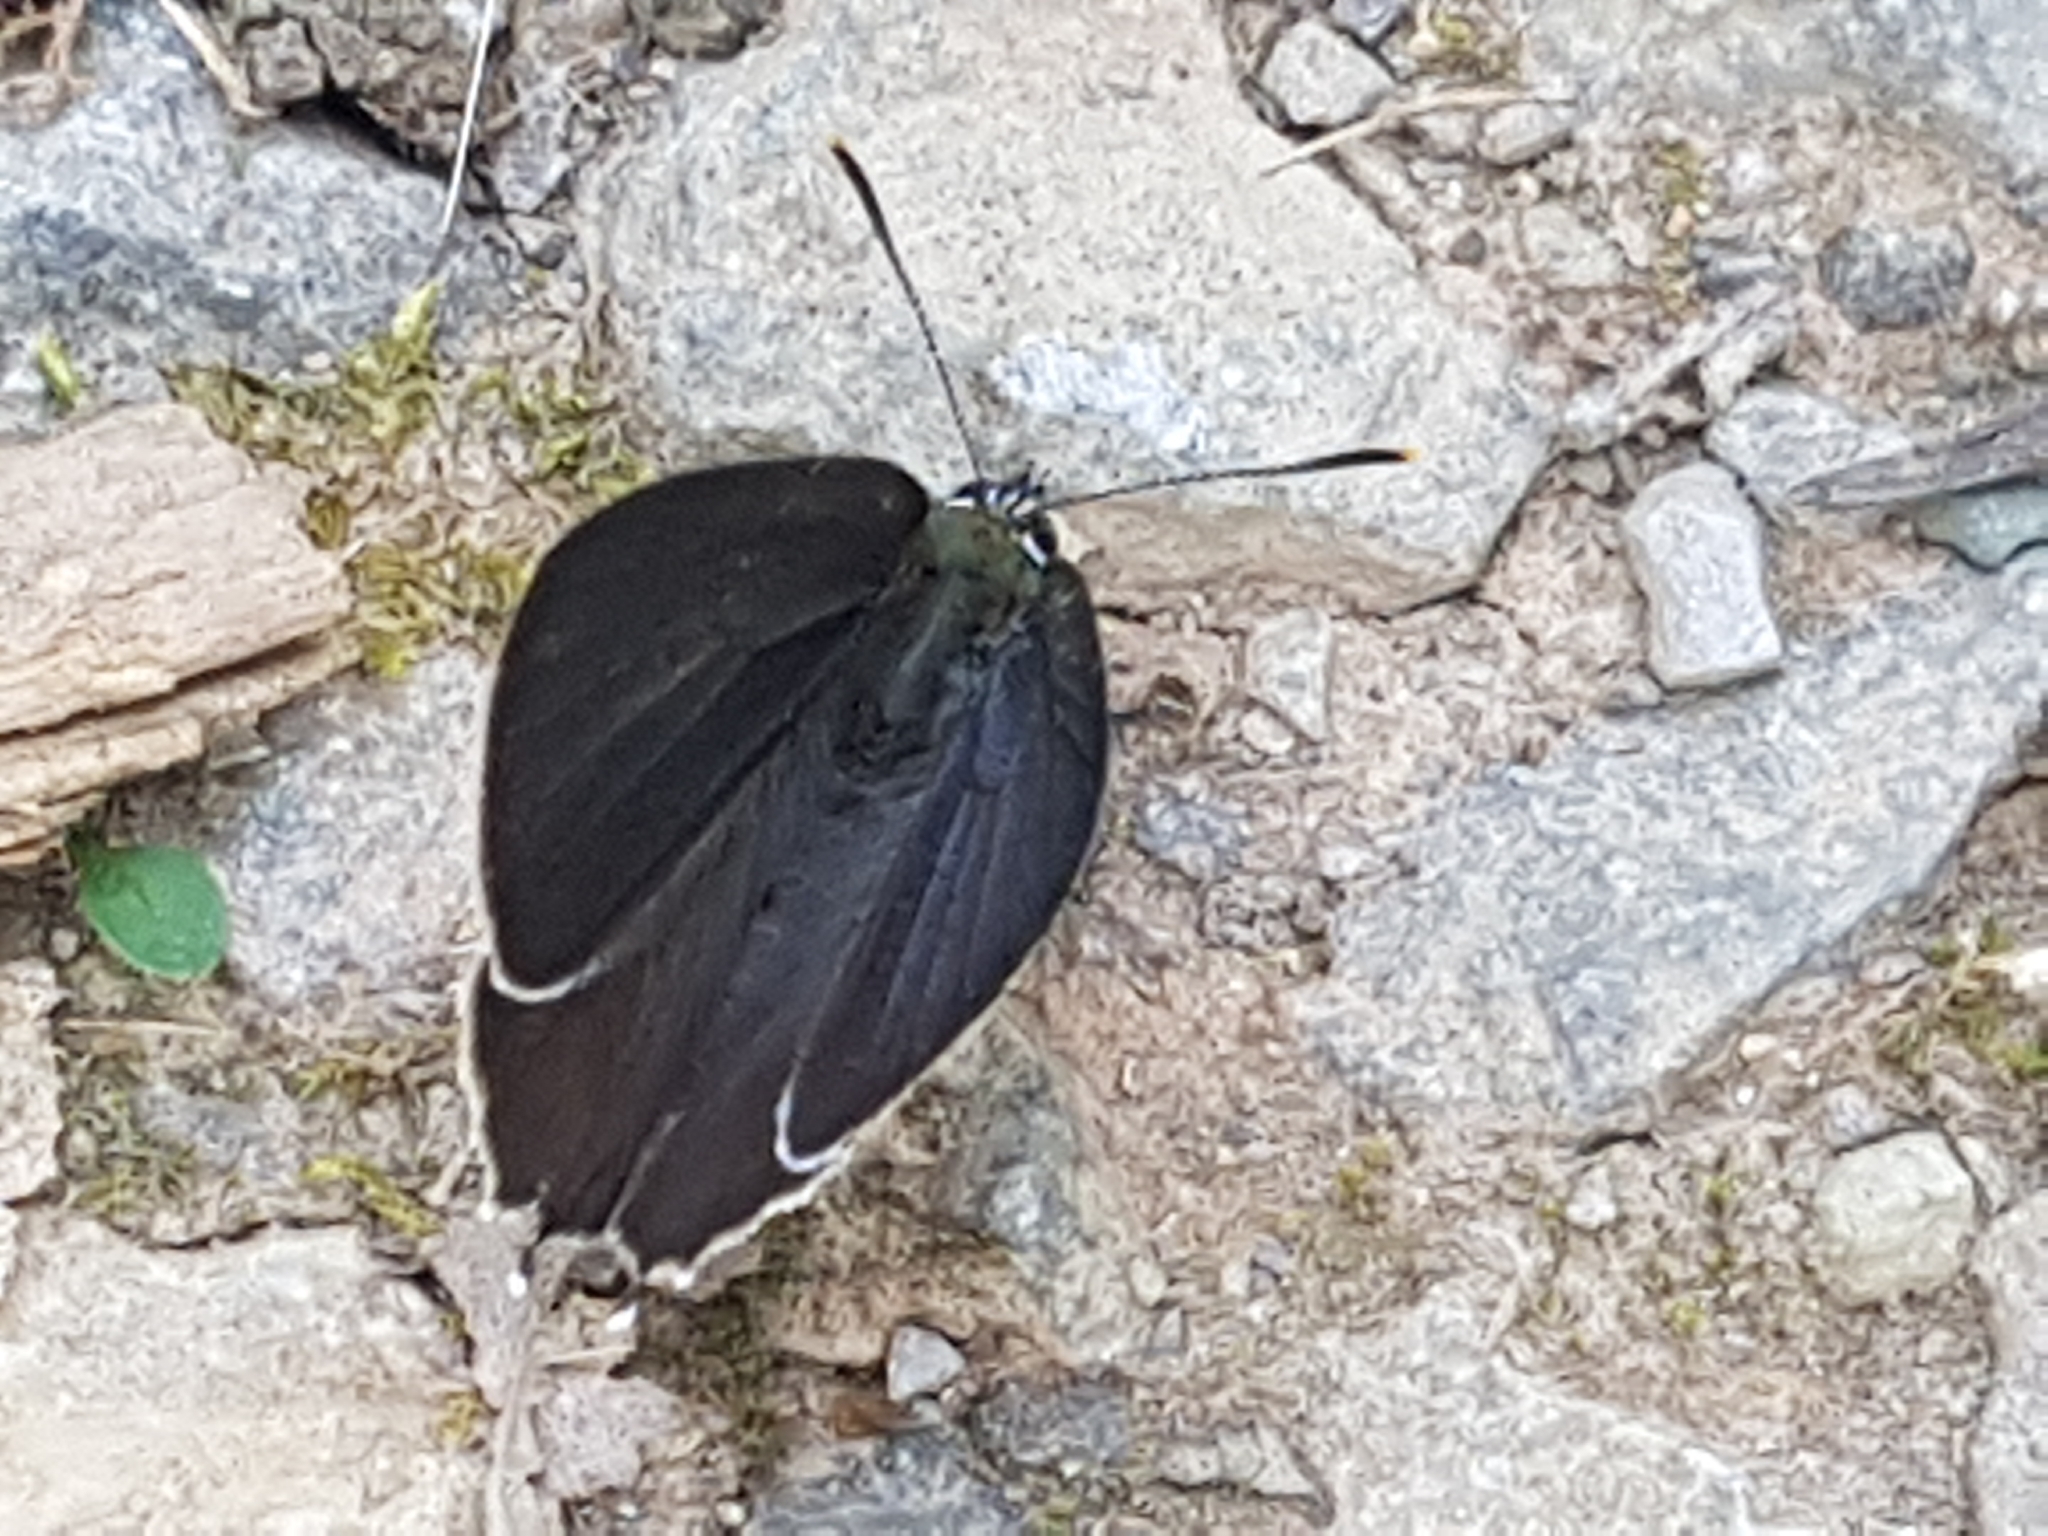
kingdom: Animalia
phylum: Arthropoda
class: Insecta
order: Lepidoptera
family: Lycaenidae
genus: Quercusia
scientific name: Quercusia quercus
